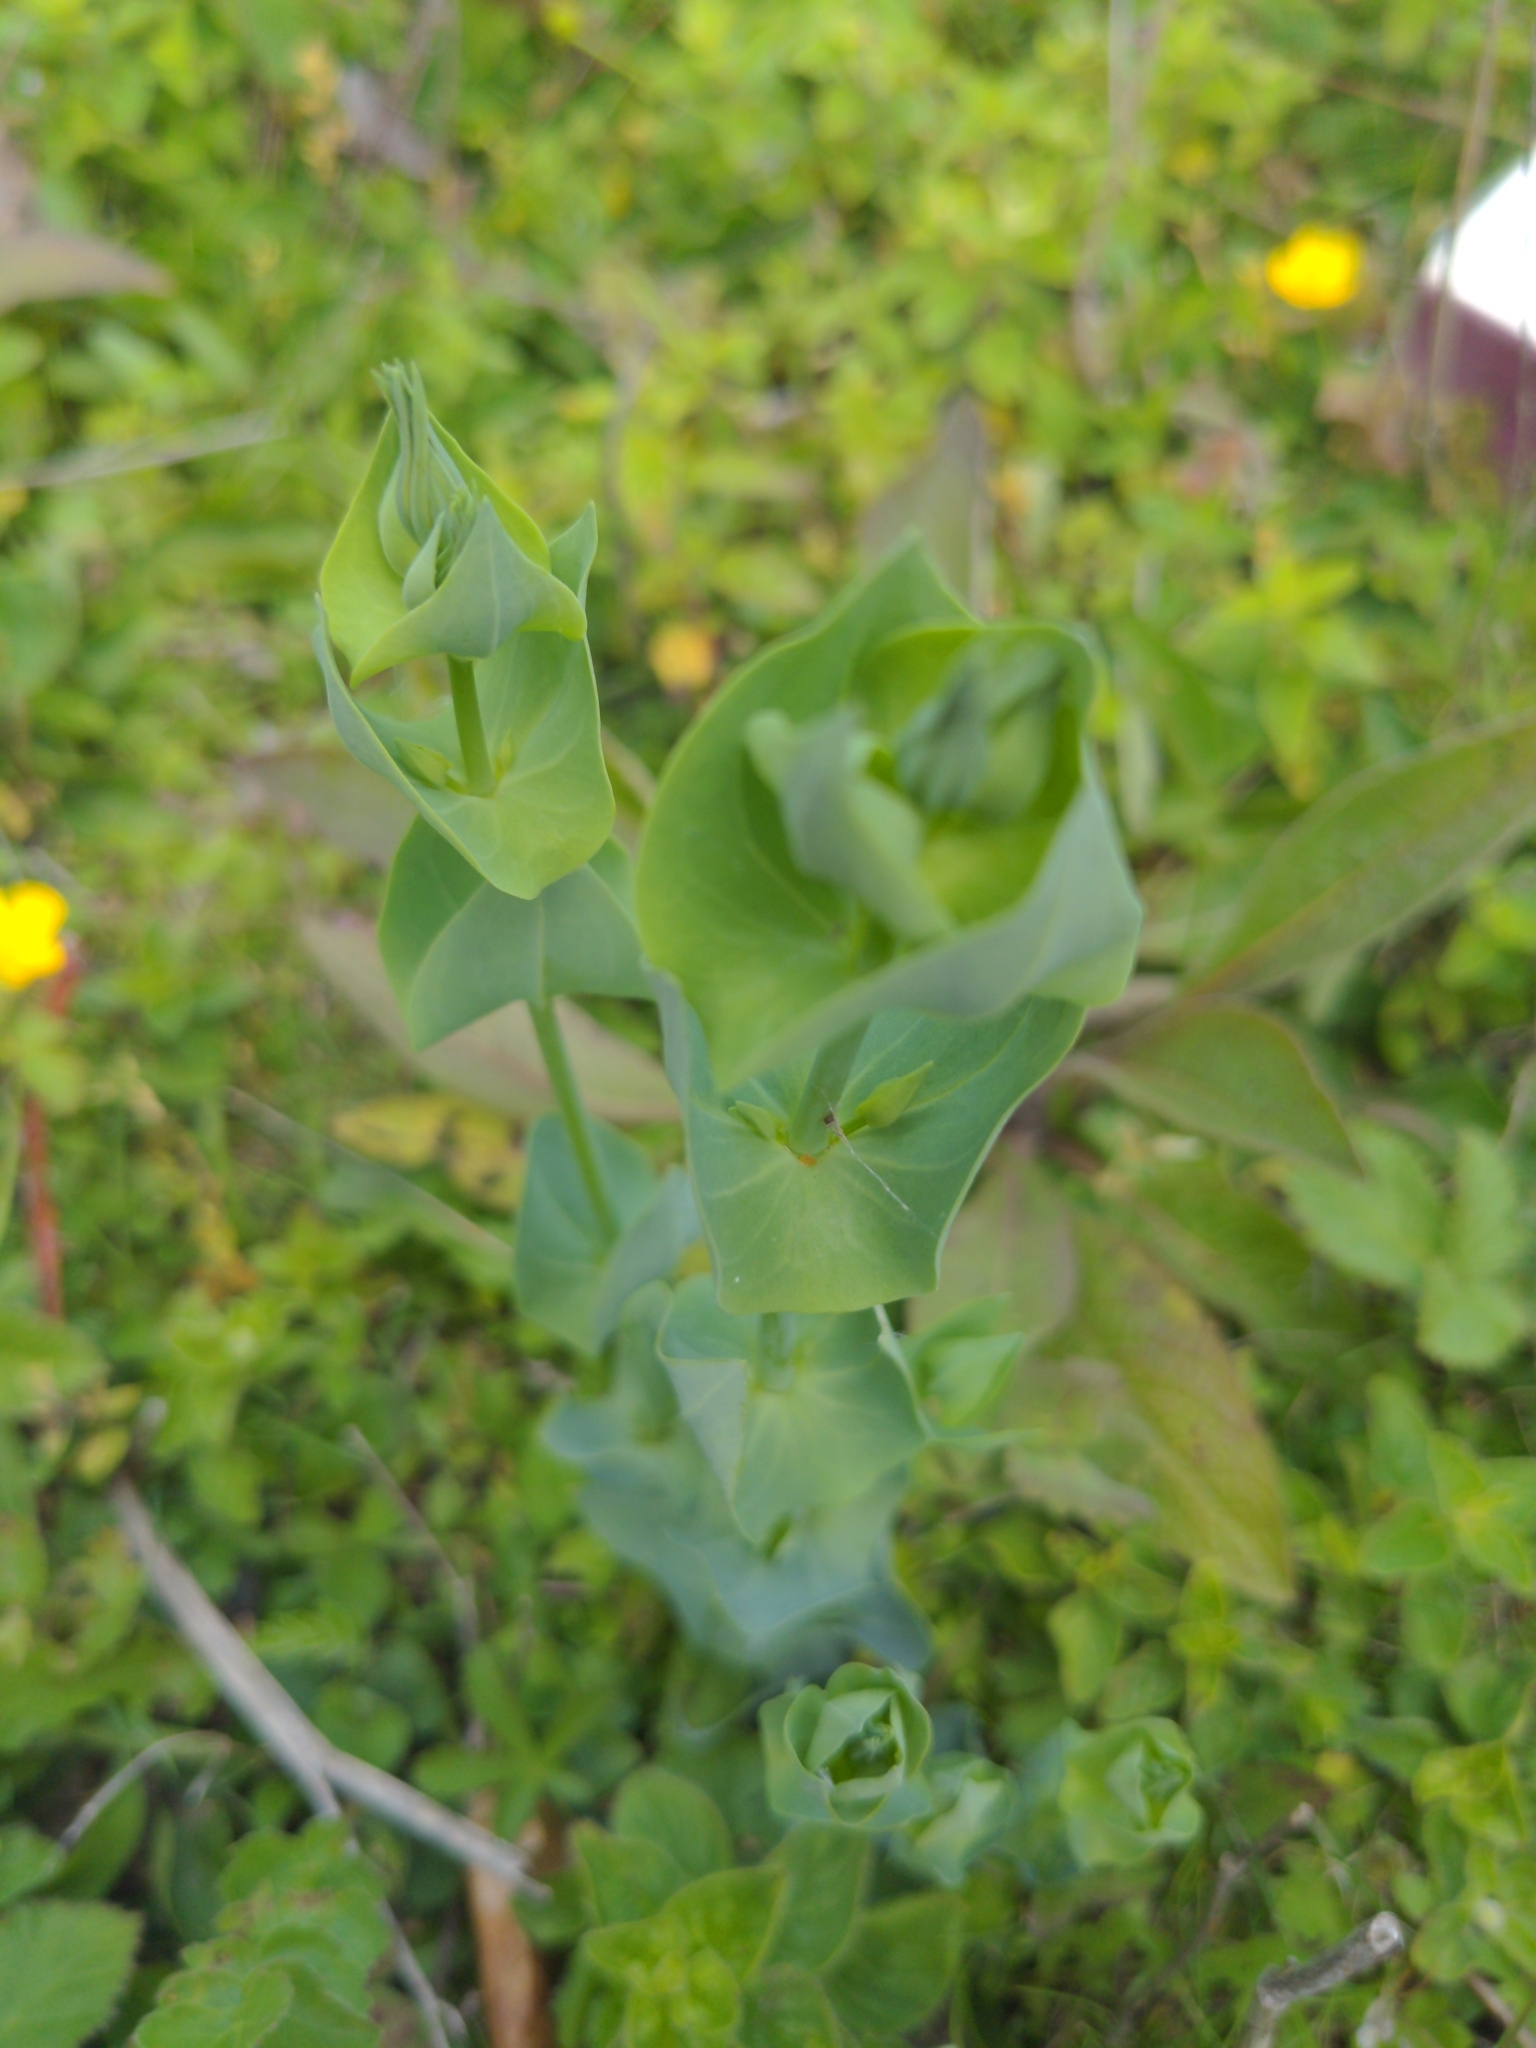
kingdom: Plantae
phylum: Tracheophyta
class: Magnoliopsida
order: Gentianales
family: Gentianaceae
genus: Blackstonia
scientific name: Blackstonia perfoliata
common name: Yellow-wort
